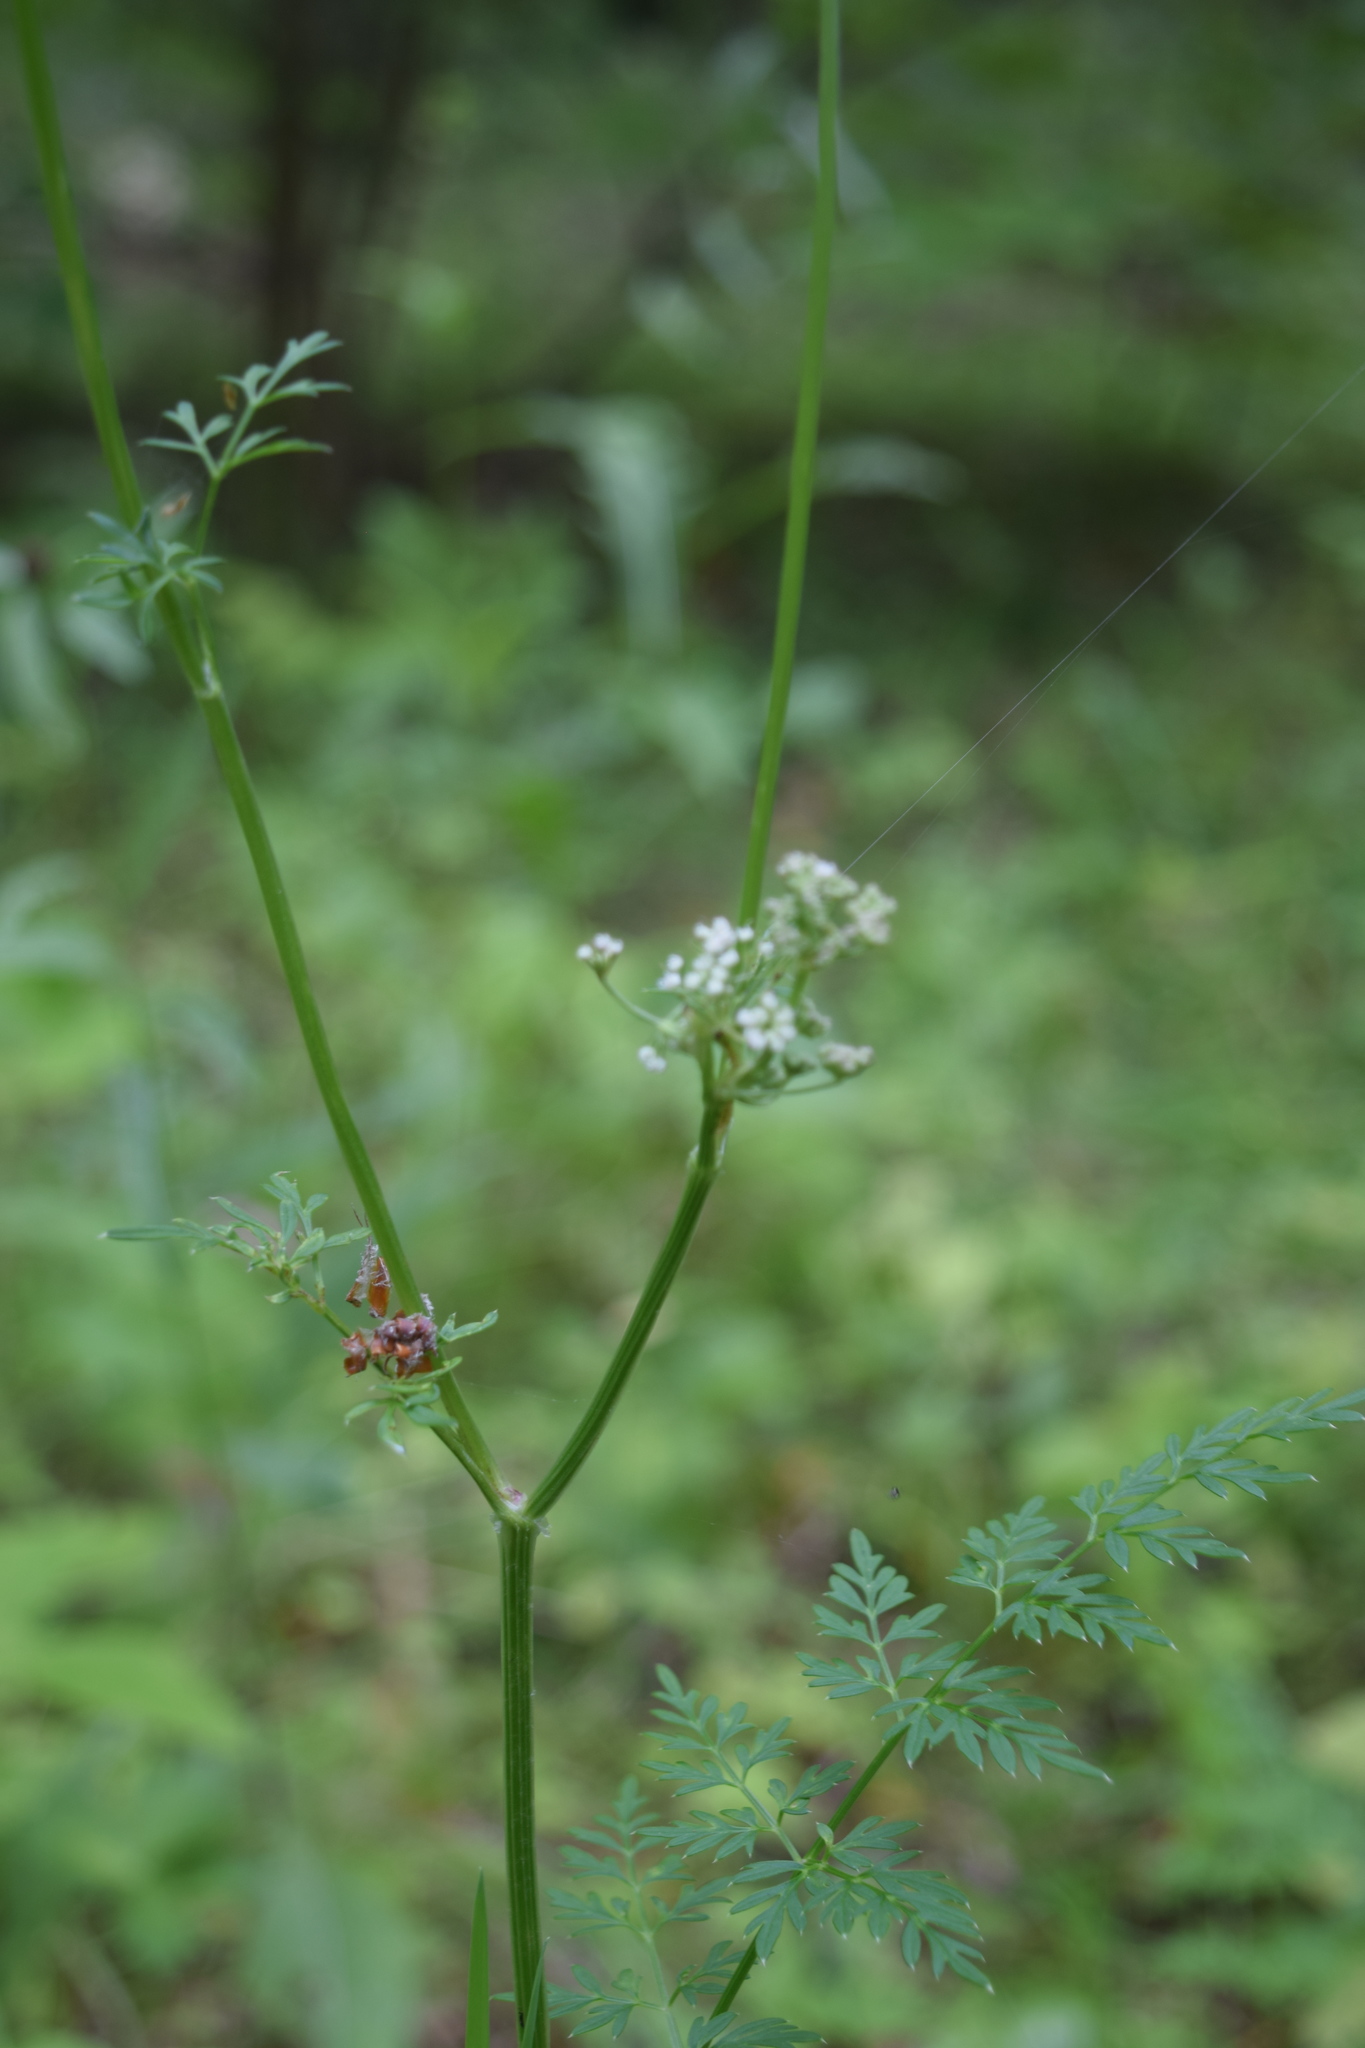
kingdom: Plantae
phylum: Tracheophyta
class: Magnoliopsida
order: Apiales
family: Apiaceae
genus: Selinum
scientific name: Selinum carvifolia
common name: Cambridge milk-parsley
